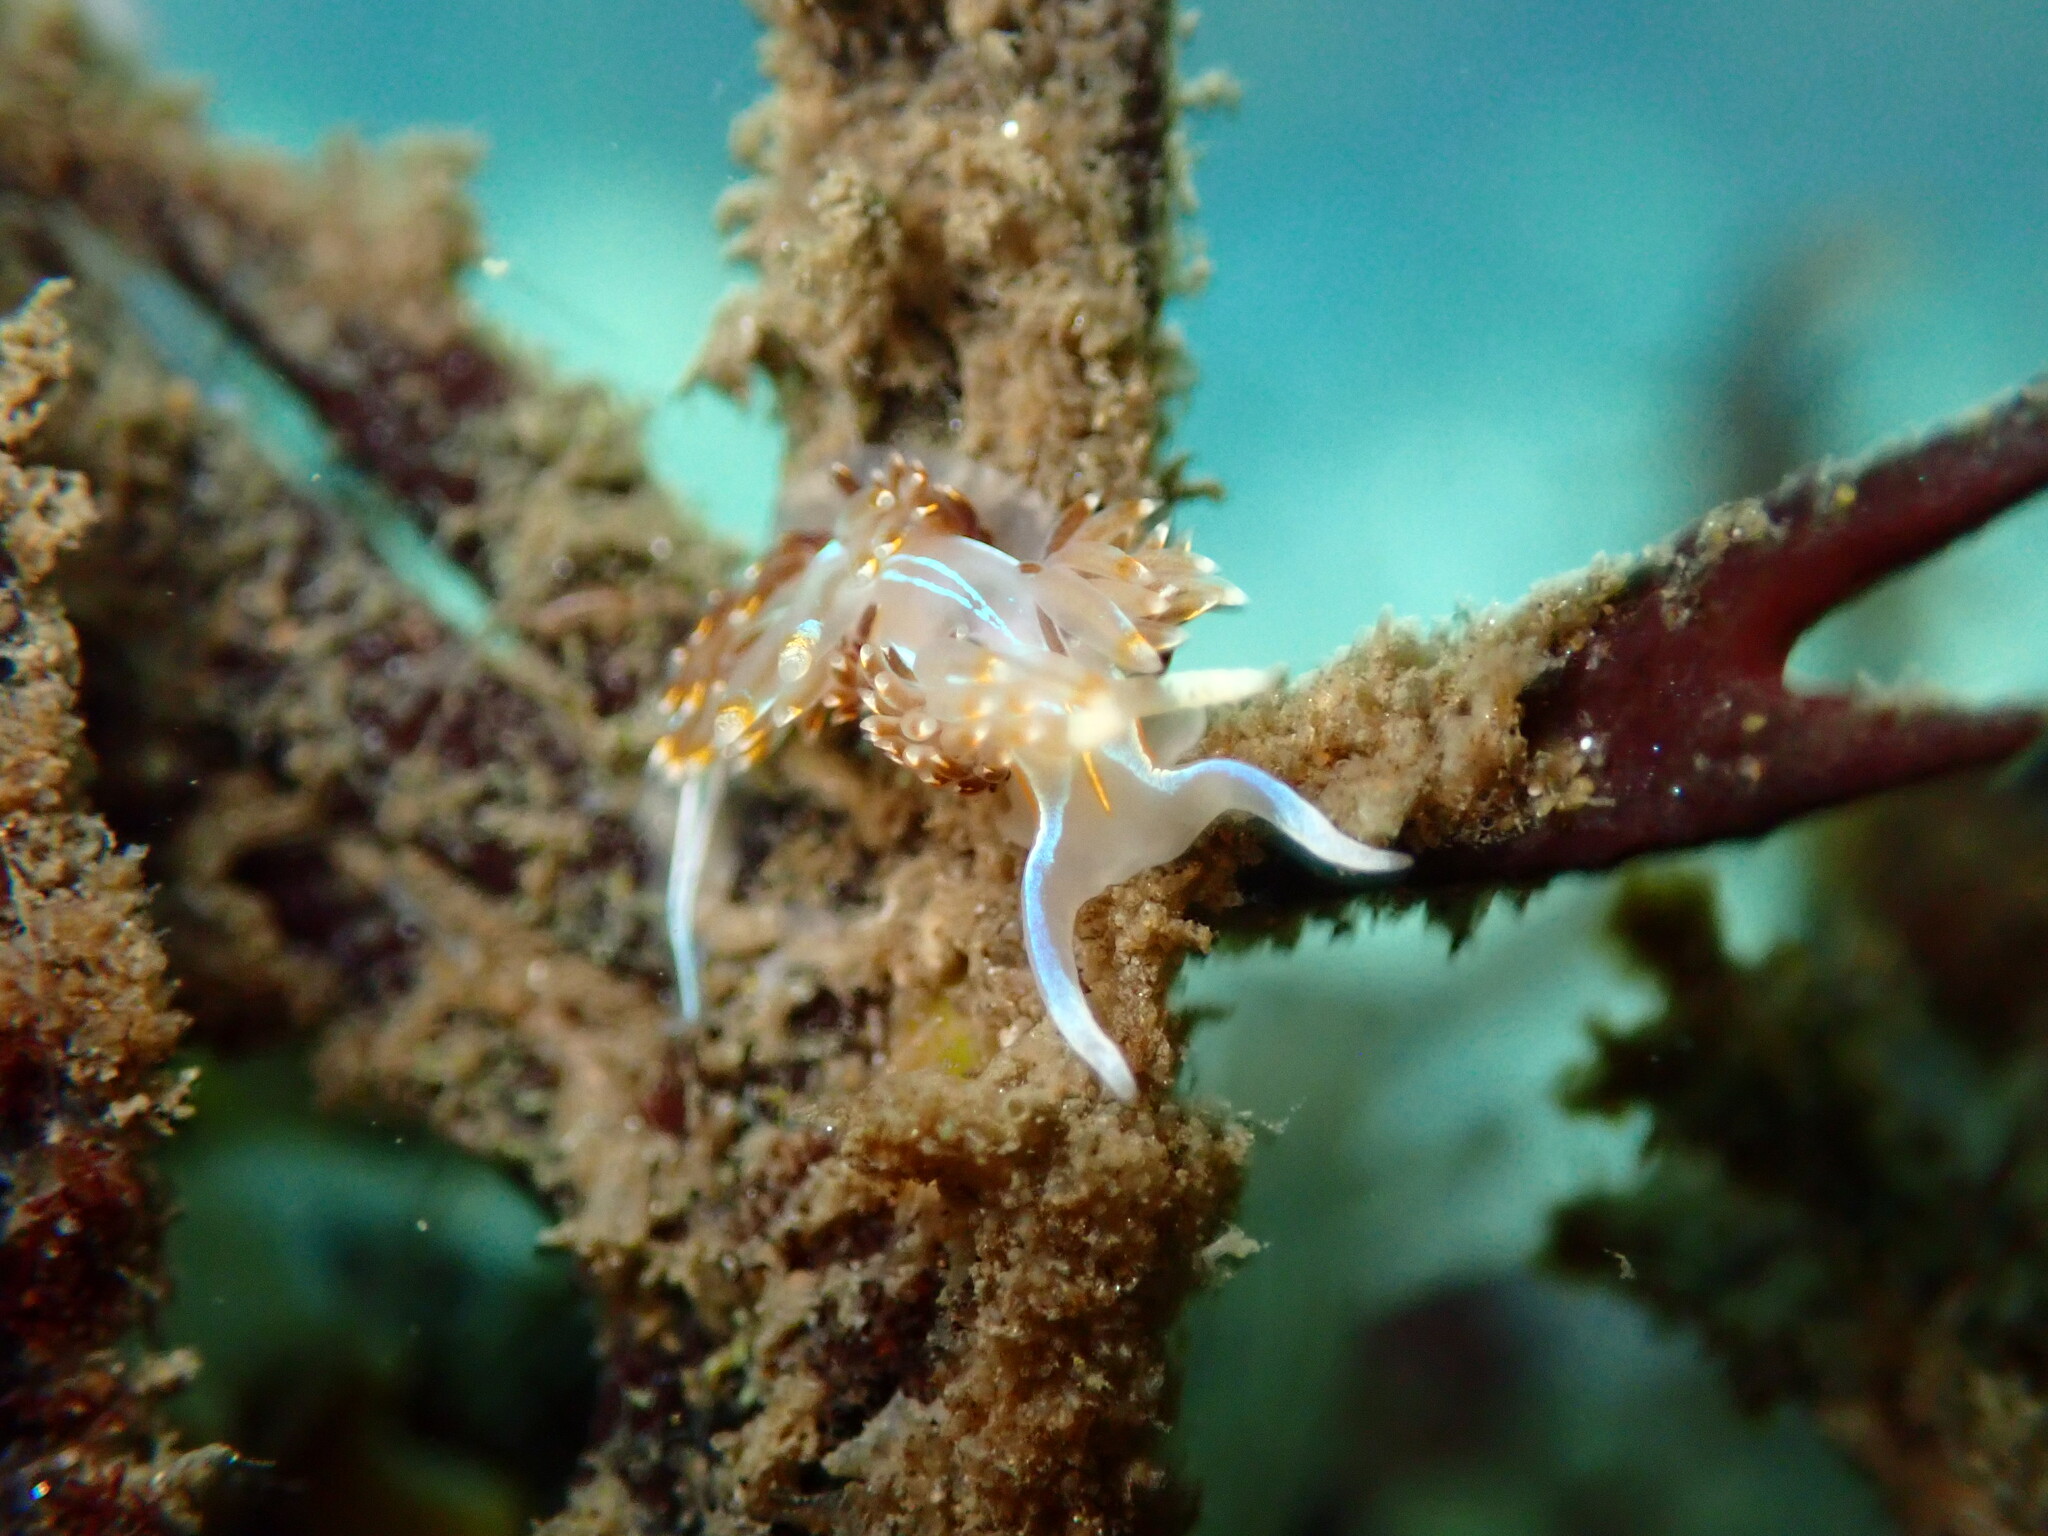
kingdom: Animalia
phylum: Mollusca
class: Gastropoda
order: Nudibranchia
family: Myrrhinidae
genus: Hermissenda
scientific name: Hermissenda opalescens
